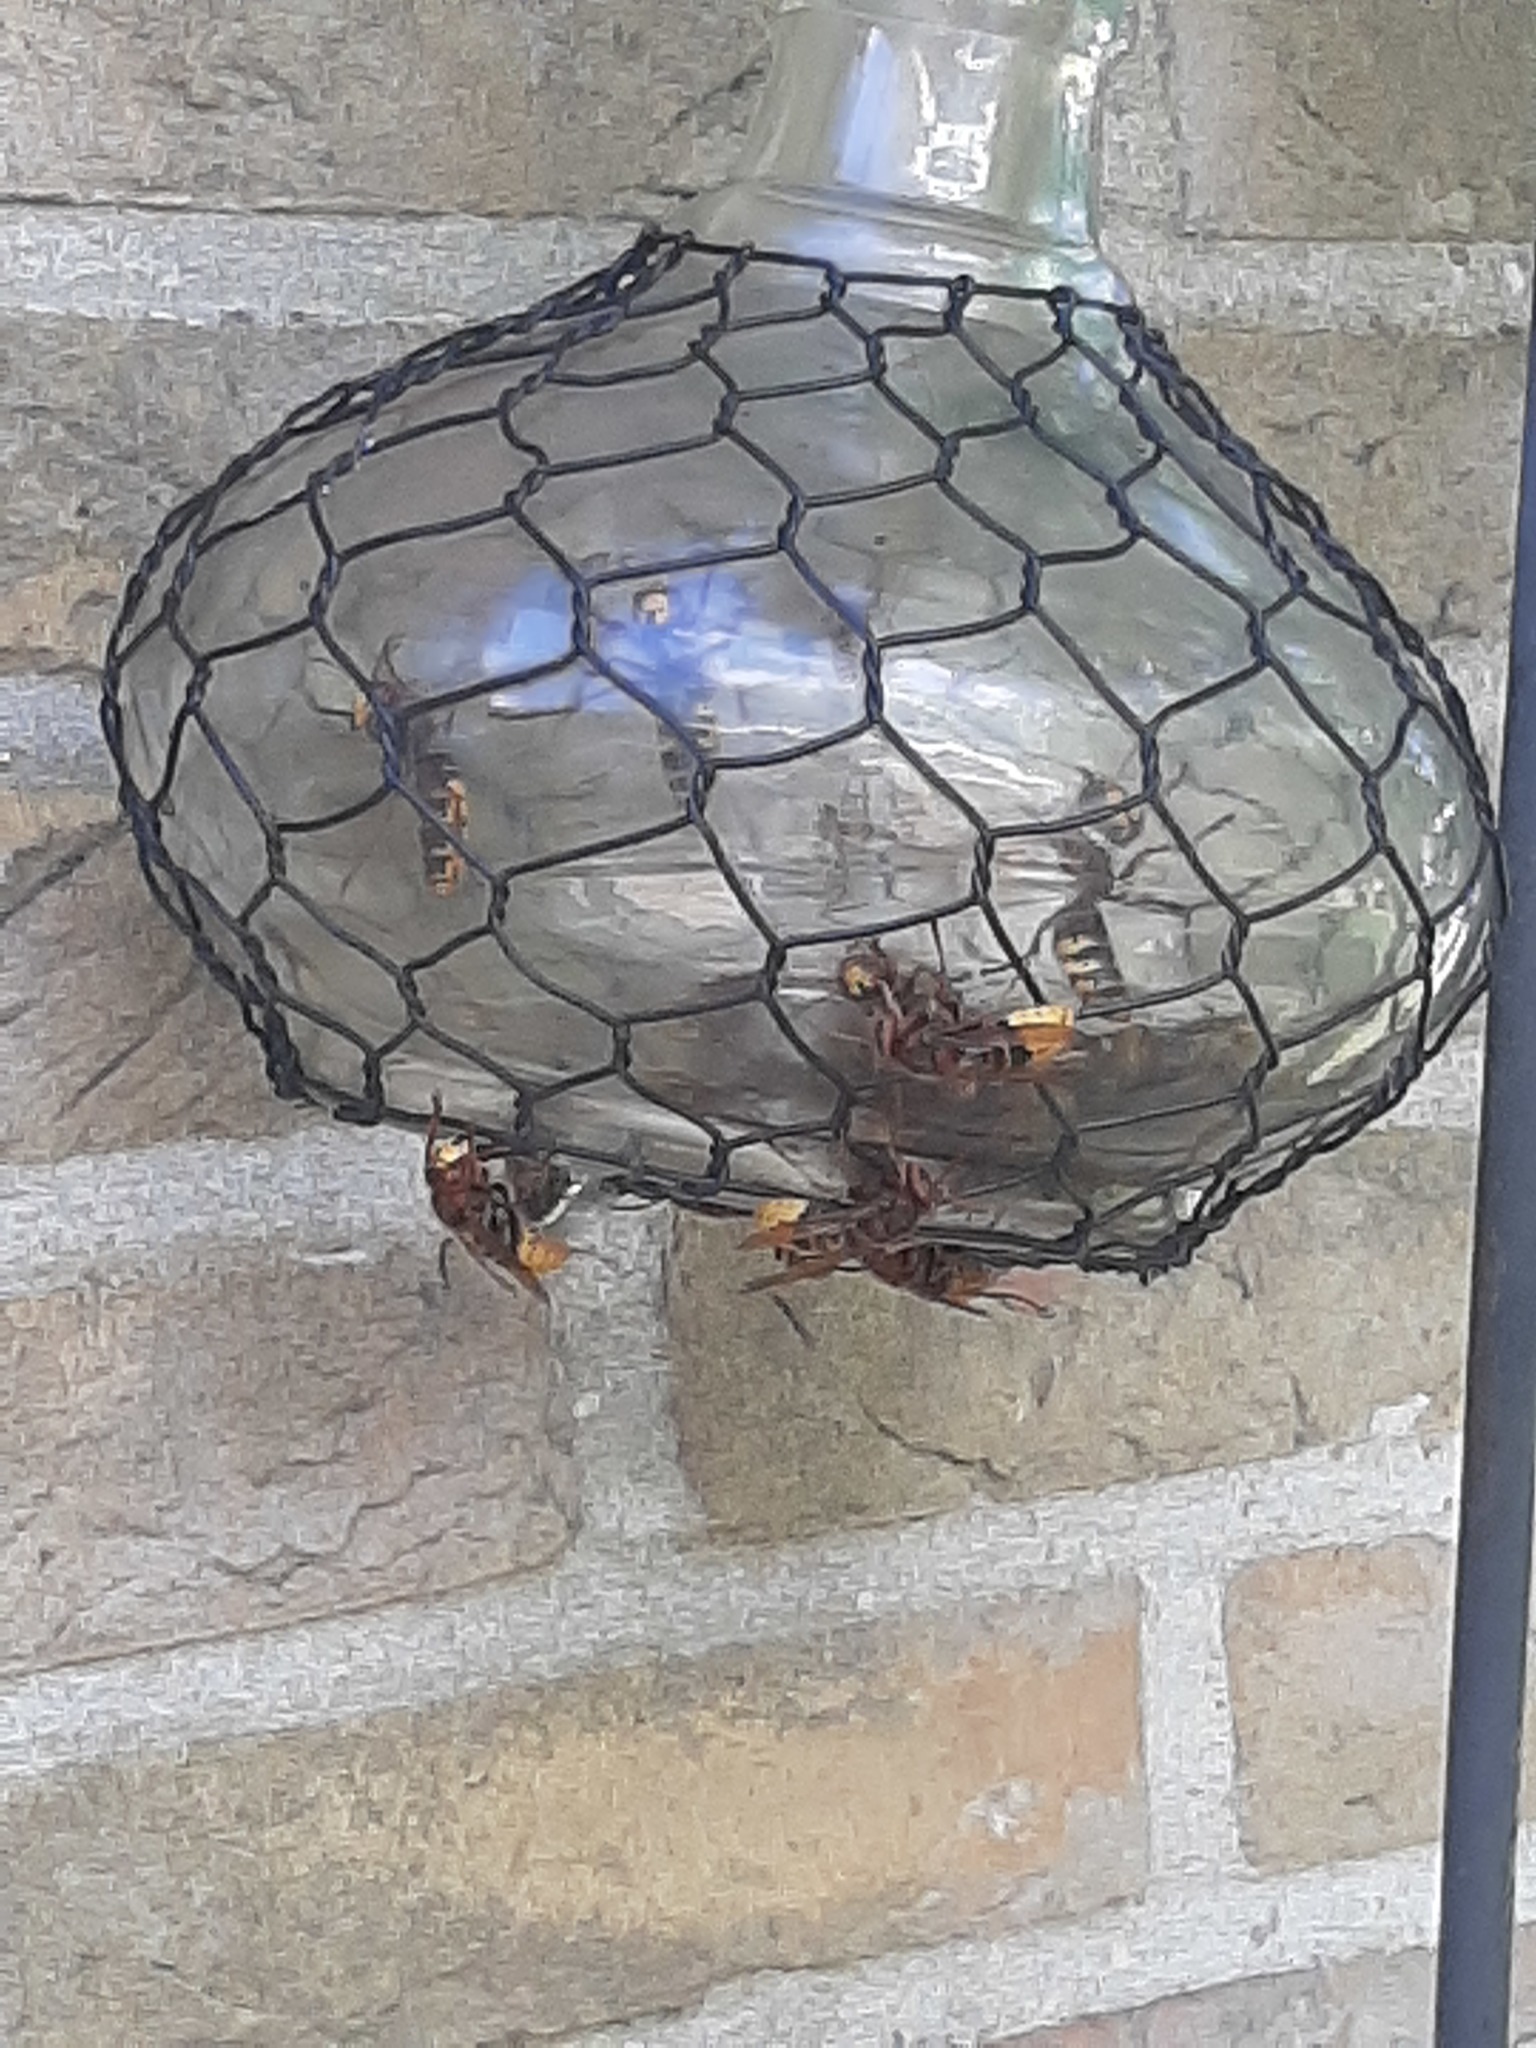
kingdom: Animalia
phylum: Arthropoda
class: Insecta
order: Hymenoptera
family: Vespidae
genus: Vespa
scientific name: Vespa crabro
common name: Hornet
